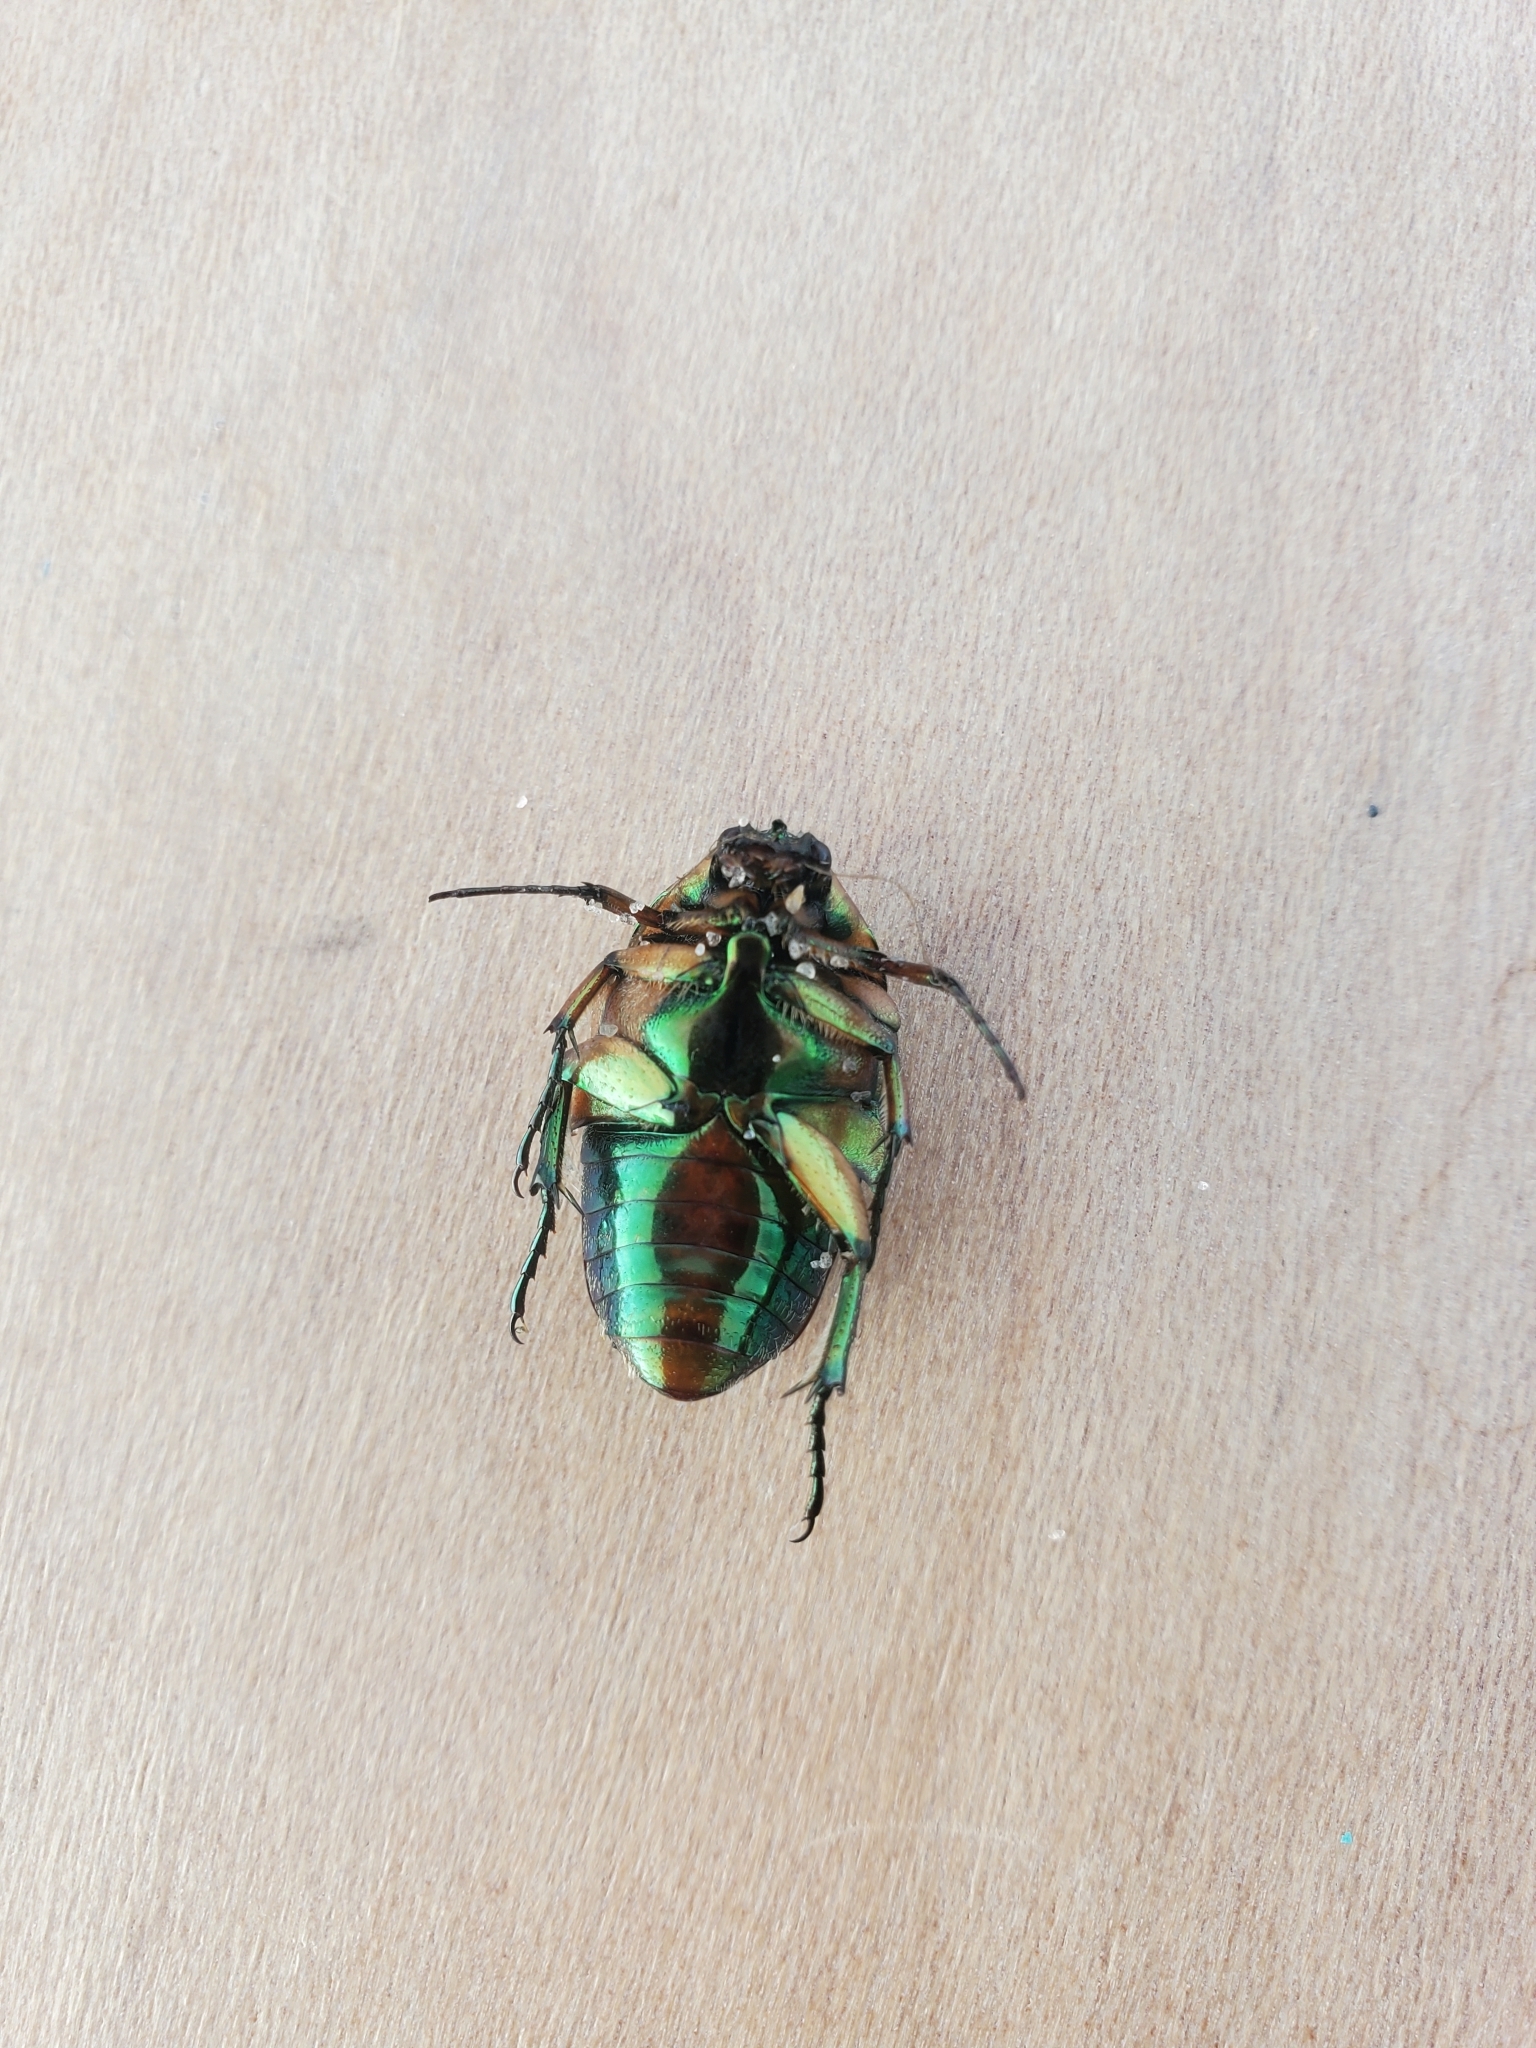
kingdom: Animalia
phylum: Arthropoda
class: Insecta
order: Coleoptera
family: Scarabaeidae
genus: Cotinis
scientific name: Cotinis nitida
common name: Common green june beetle
